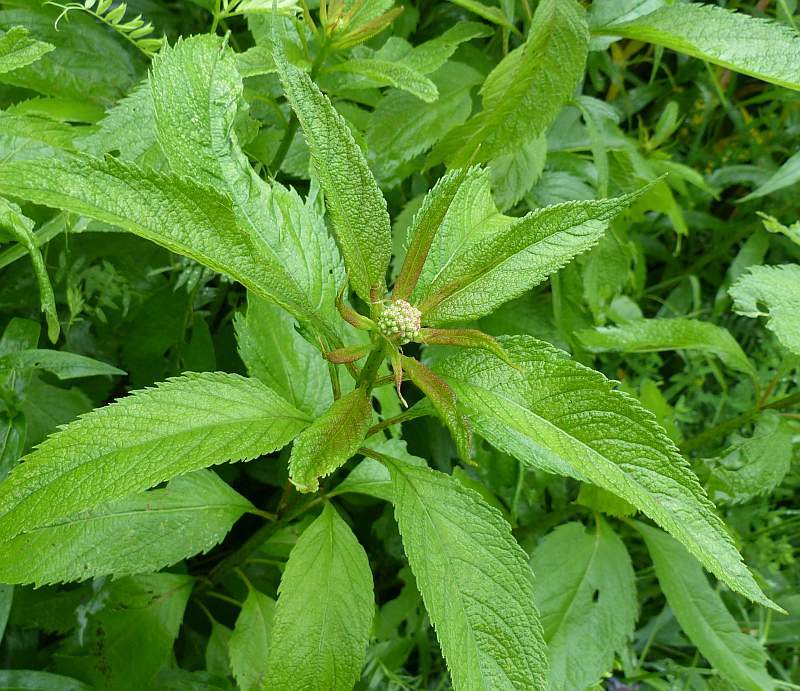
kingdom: Plantae
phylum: Tracheophyta
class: Magnoliopsida
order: Asterales
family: Asteraceae
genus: Eutrochium
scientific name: Eutrochium maculatum
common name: Spotted joe pye weed
